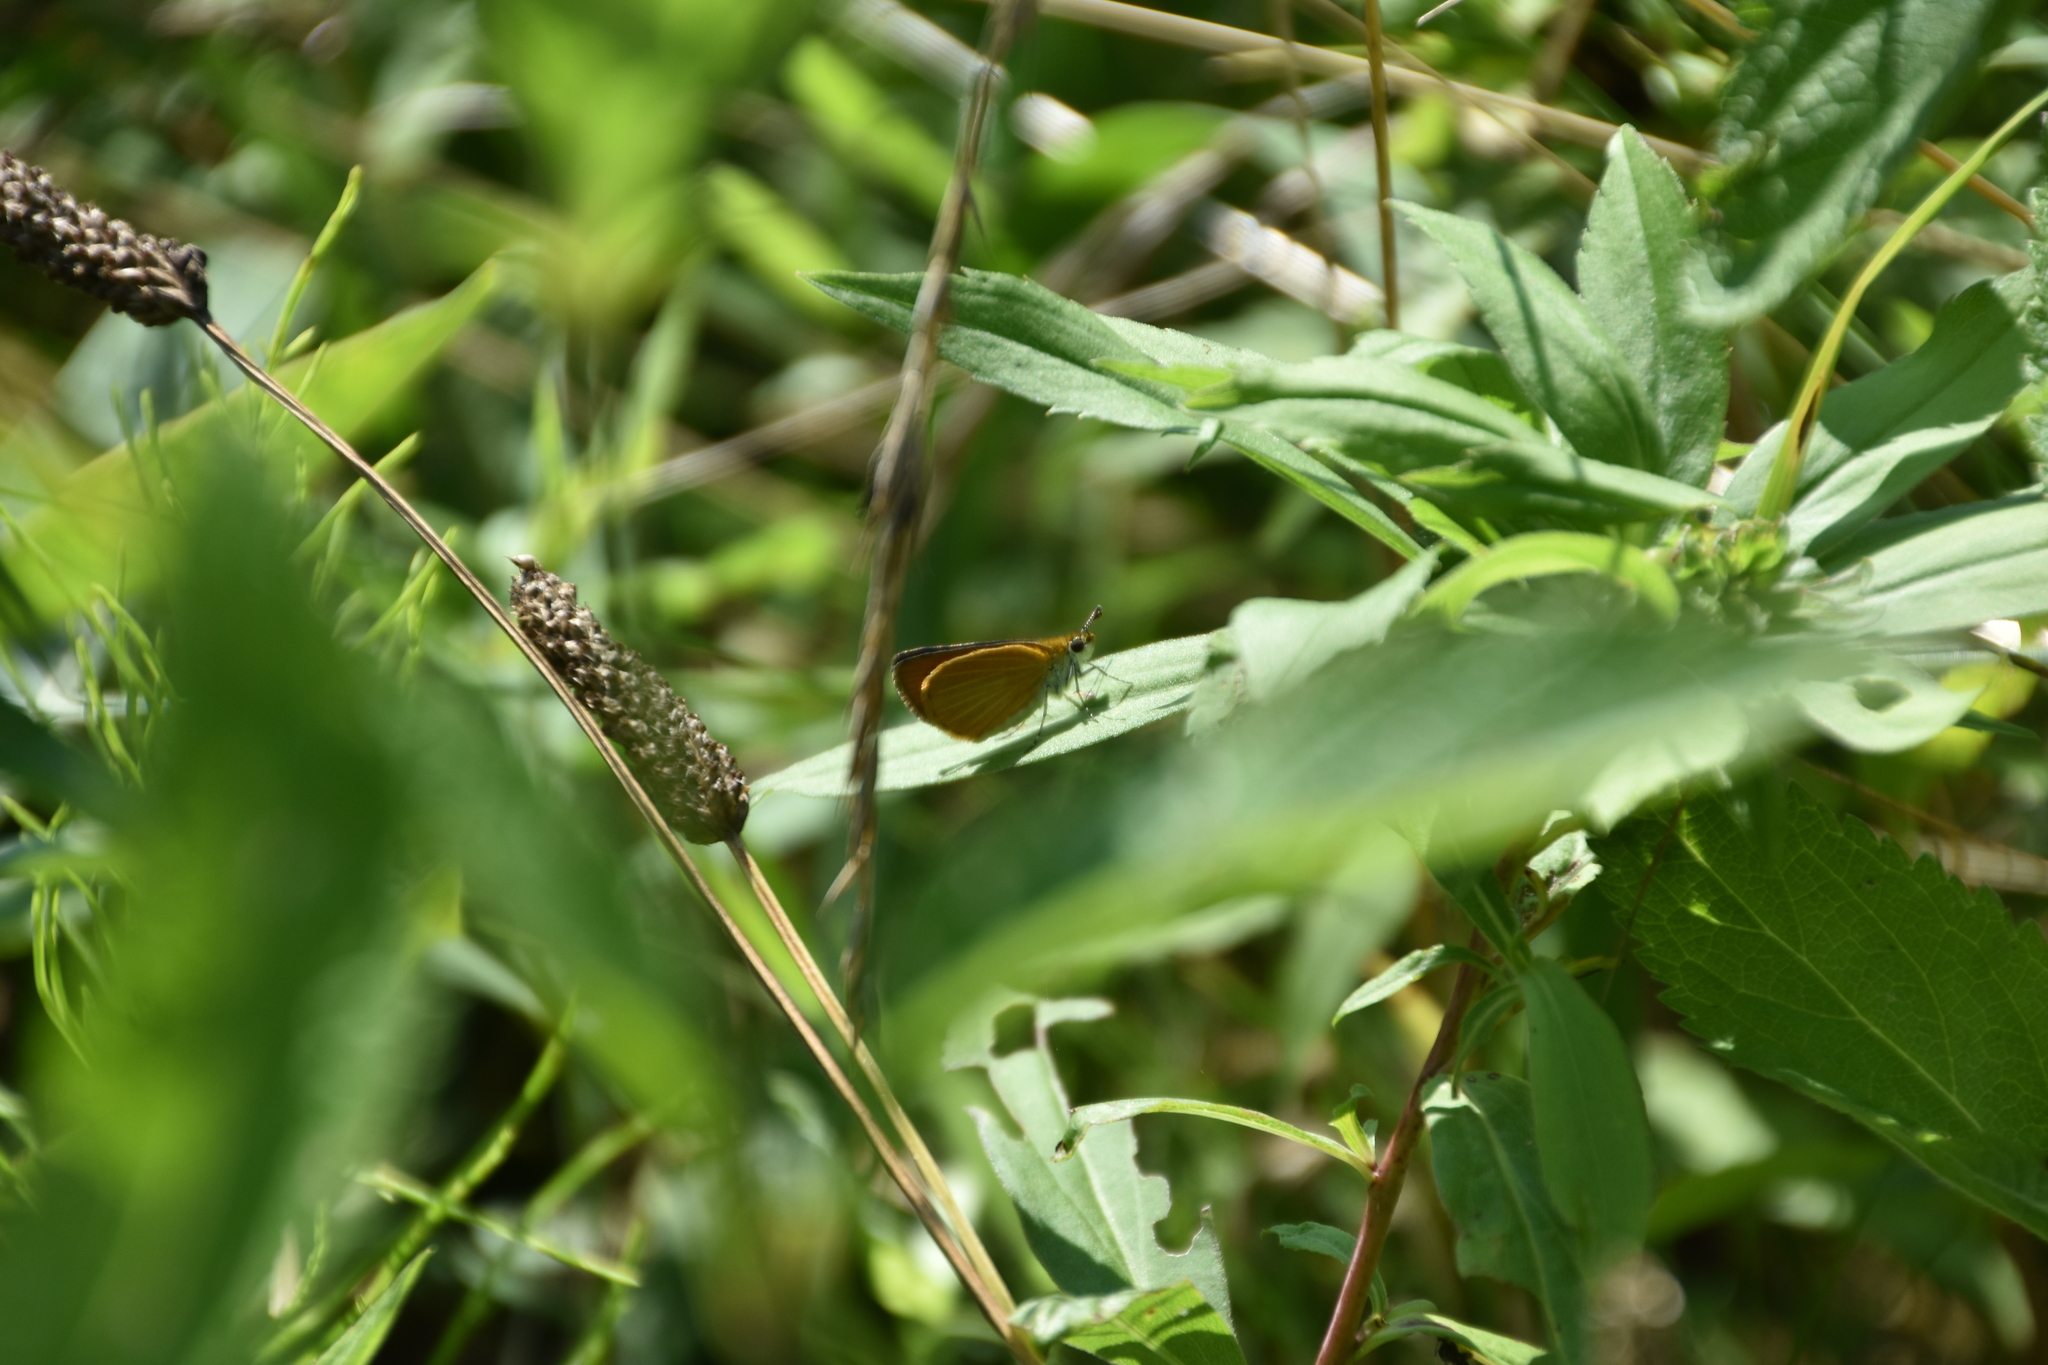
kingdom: Animalia
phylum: Arthropoda
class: Insecta
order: Lepidoptera
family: Hesperiidae
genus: Ancyloxypha
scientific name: Ancyloxypha numitor
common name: Least skipper
